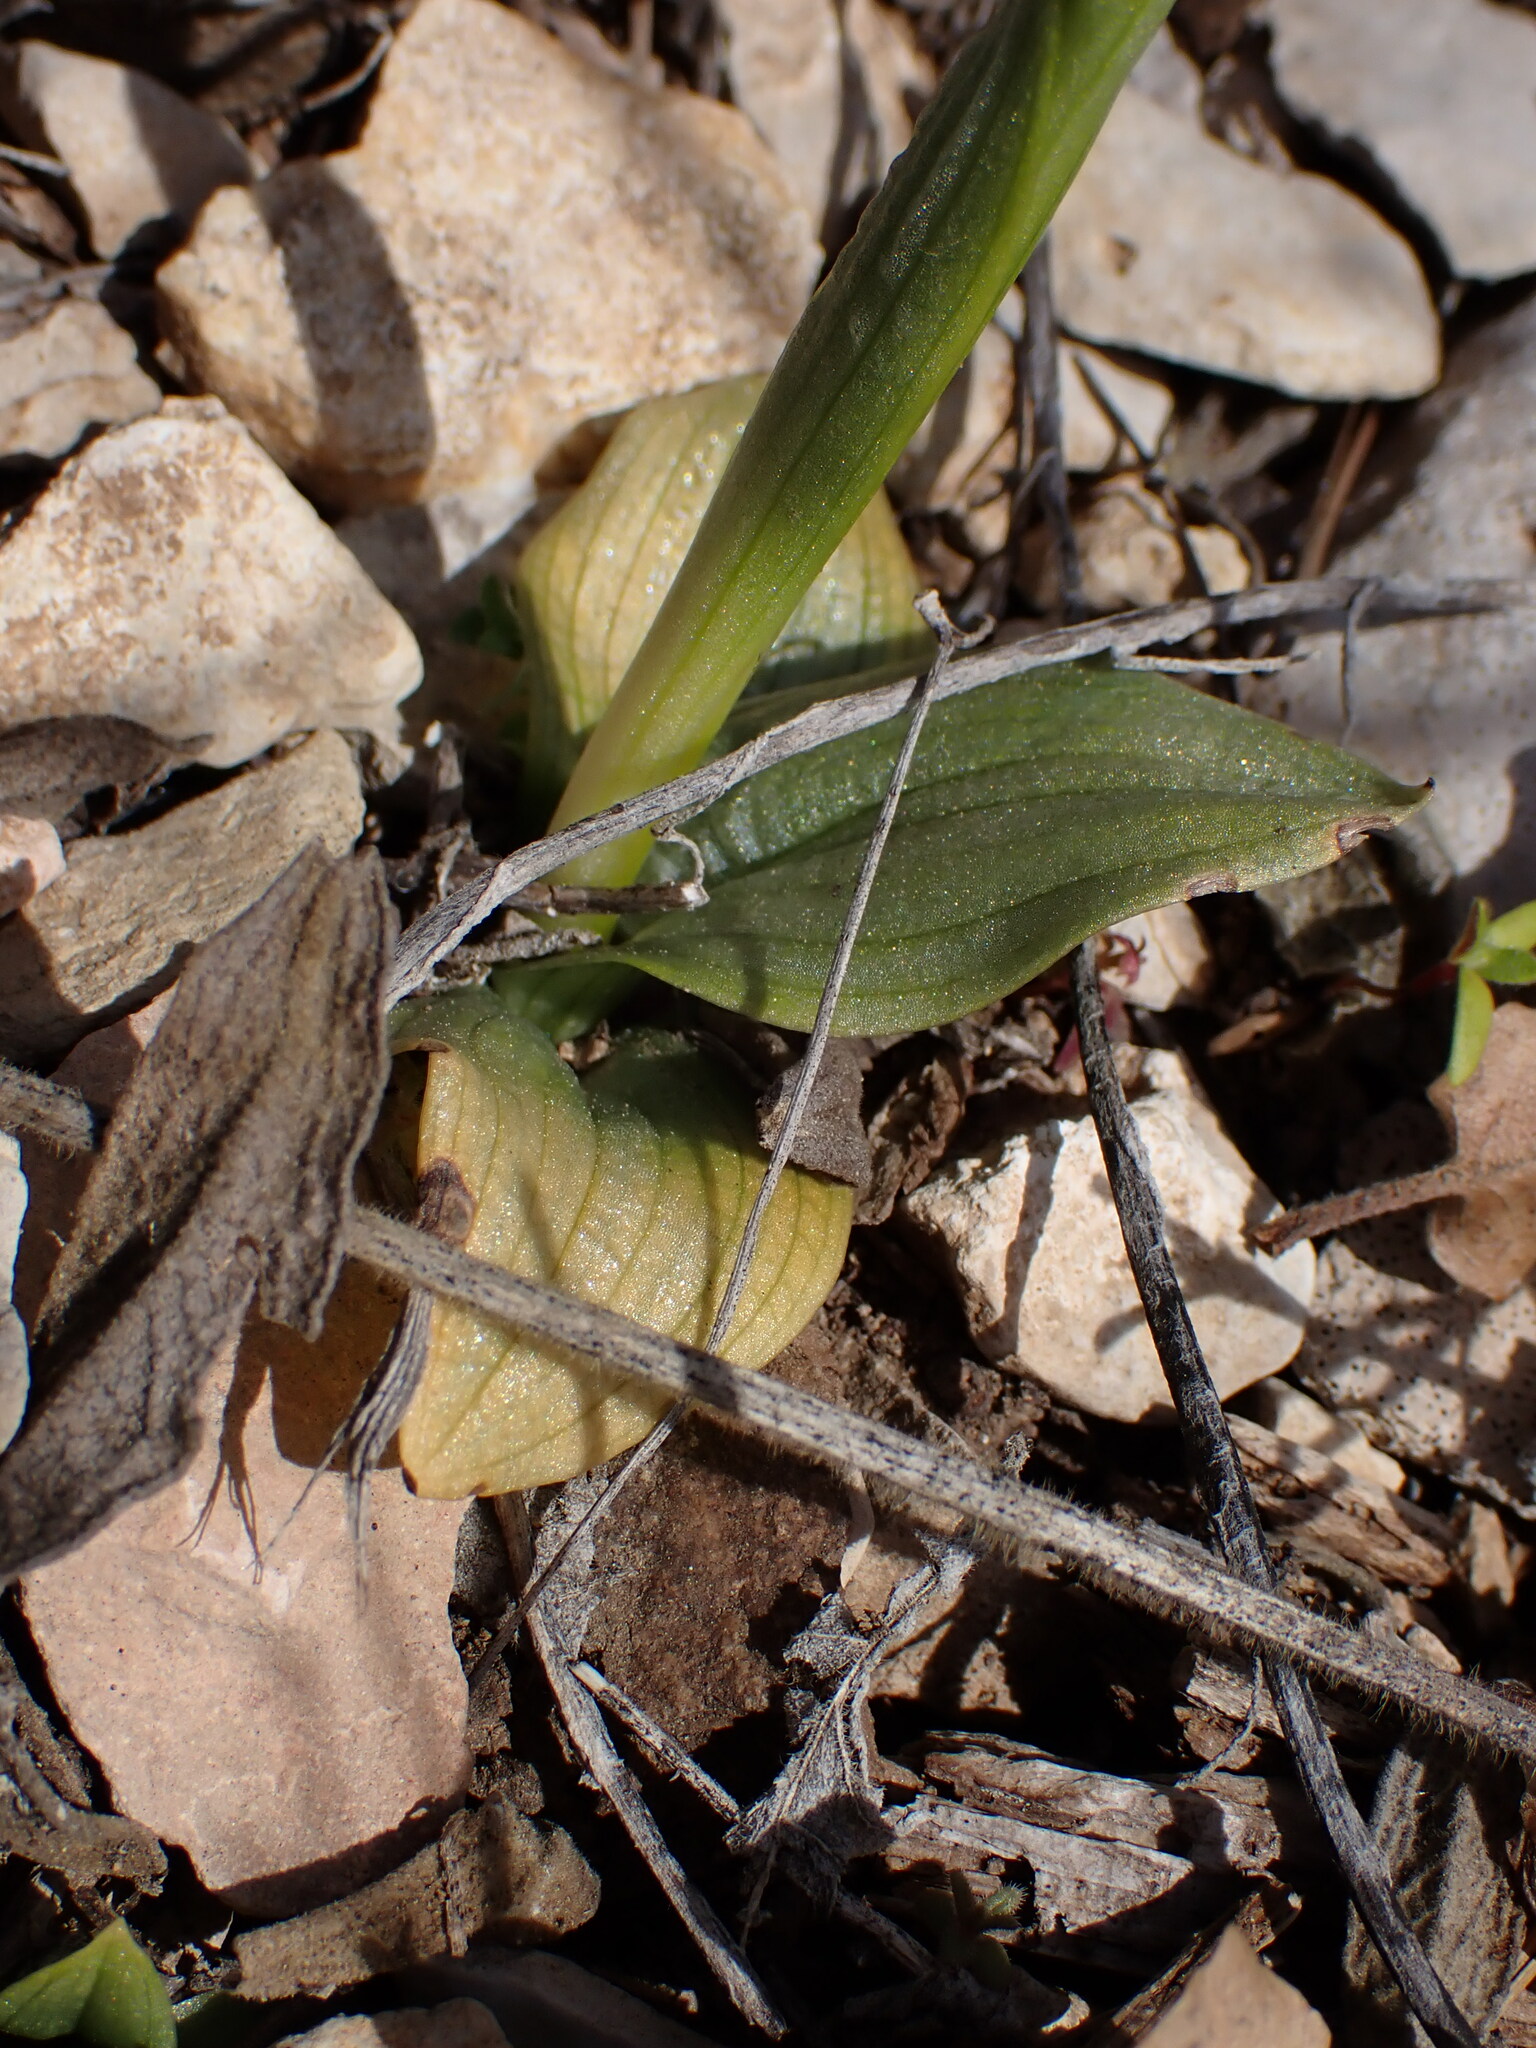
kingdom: Plantae
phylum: Tracheophyta
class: Liliopsida
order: Asparagales
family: Orchidaceae
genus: Ophrys
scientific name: Ophrys fusca
